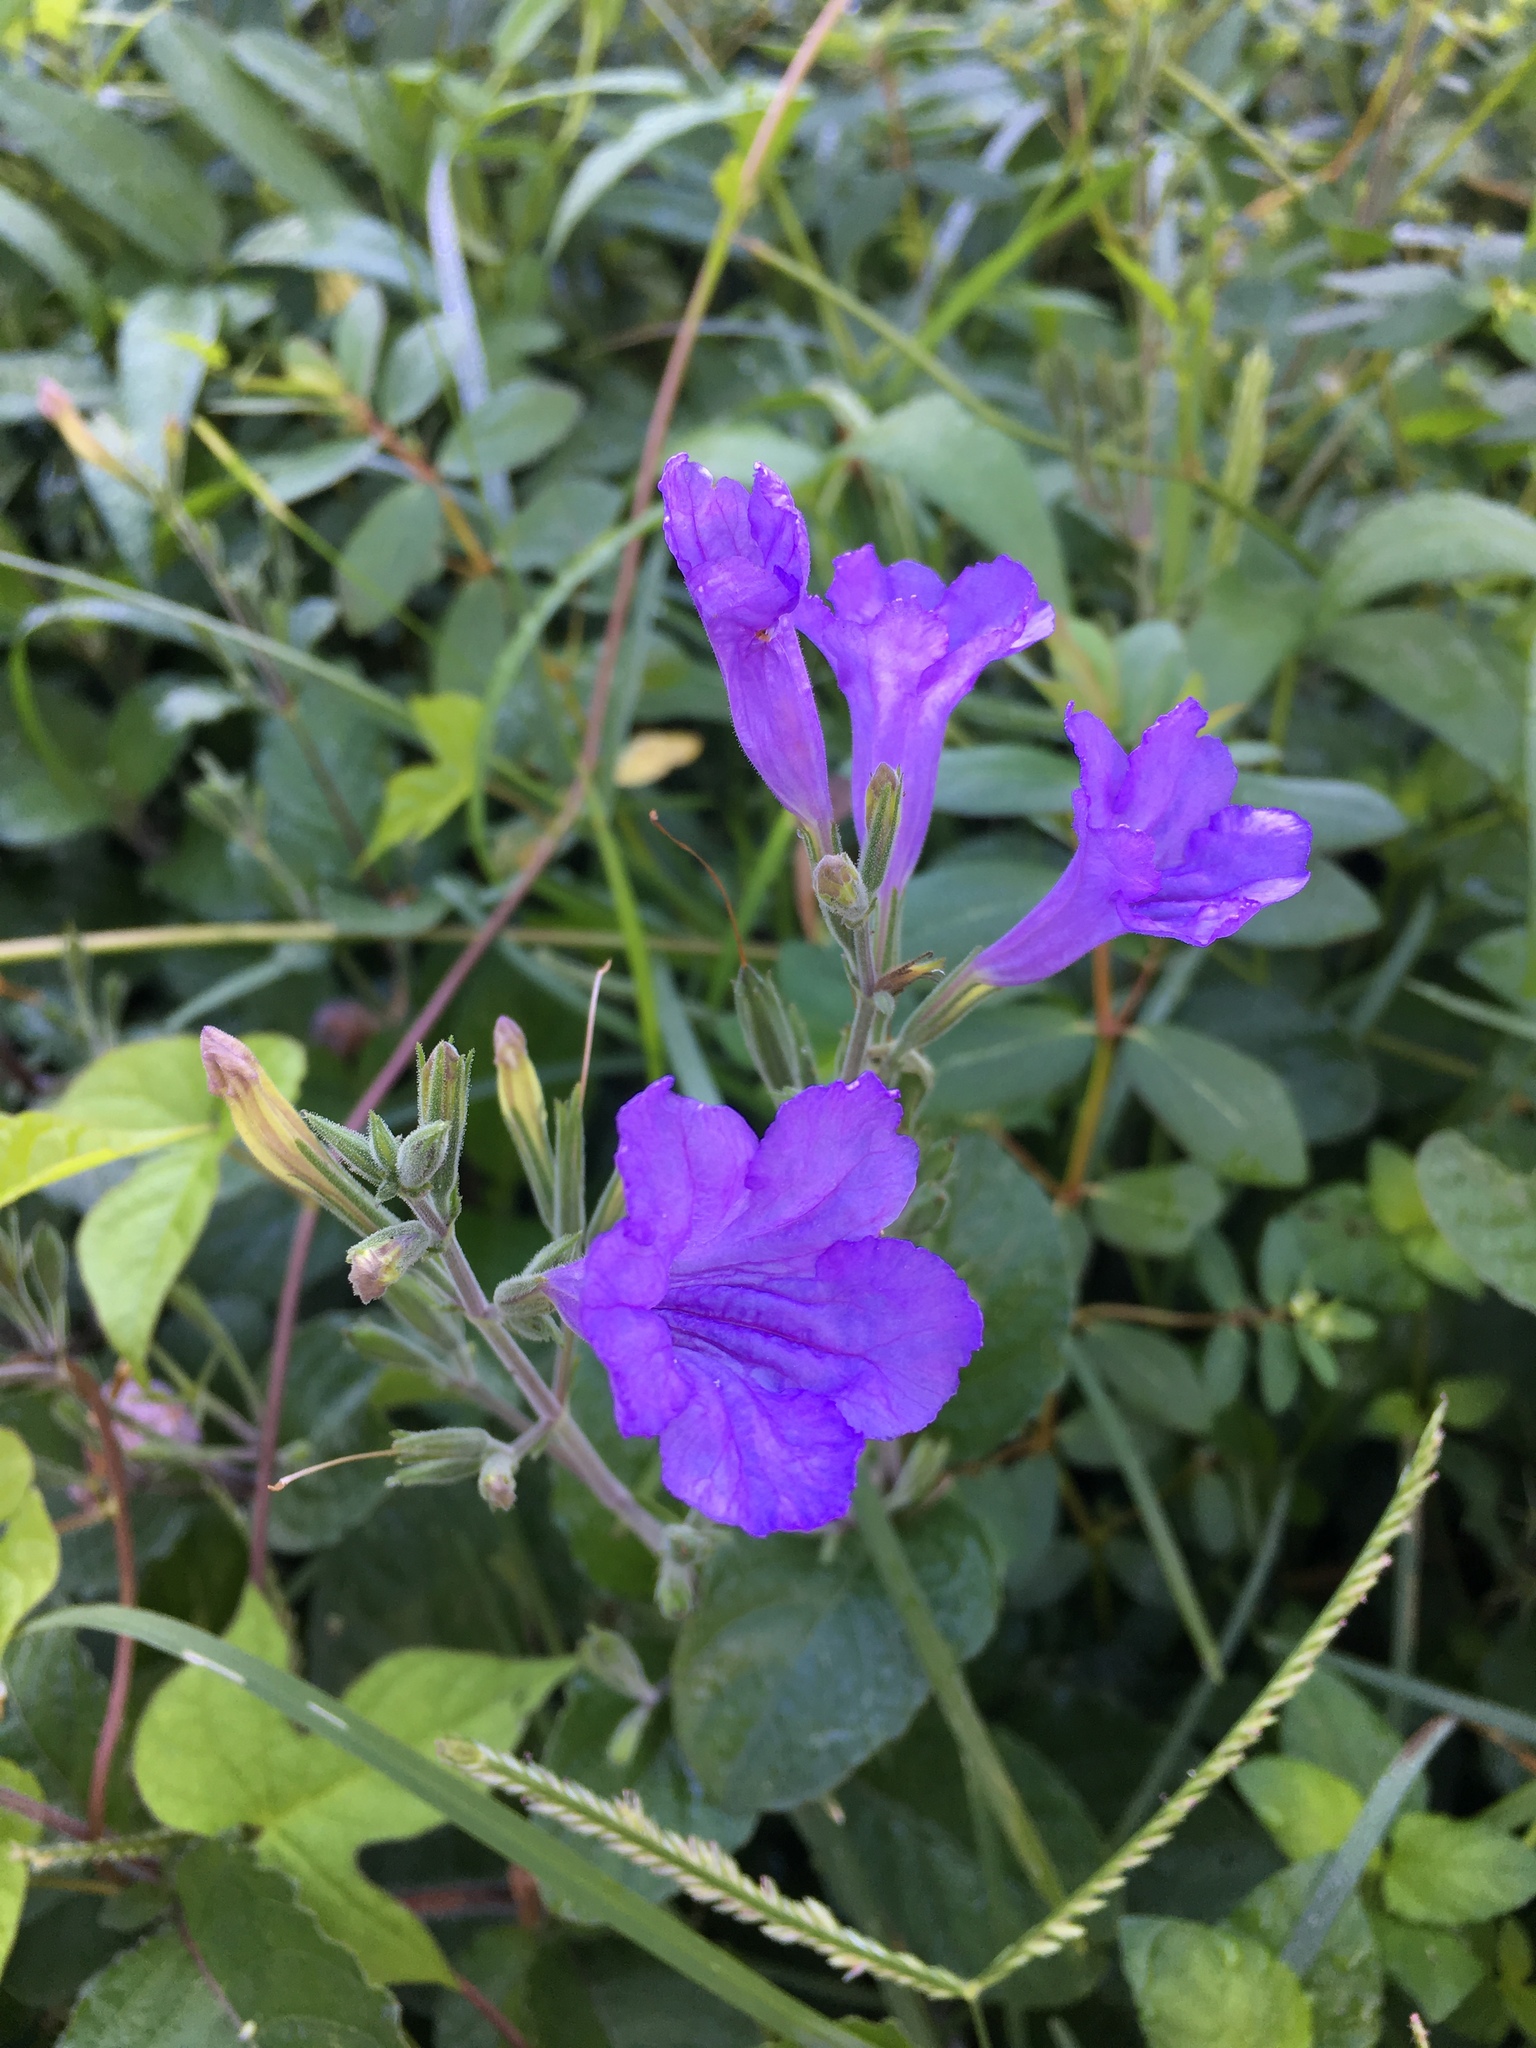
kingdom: Plantae
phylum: Tracheophyta
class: Magnoliopsida
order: Lamiales
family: Acanthaceae
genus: Ruellia
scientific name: Ruellia ciliatiflora
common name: Hairyflower wild petunia
